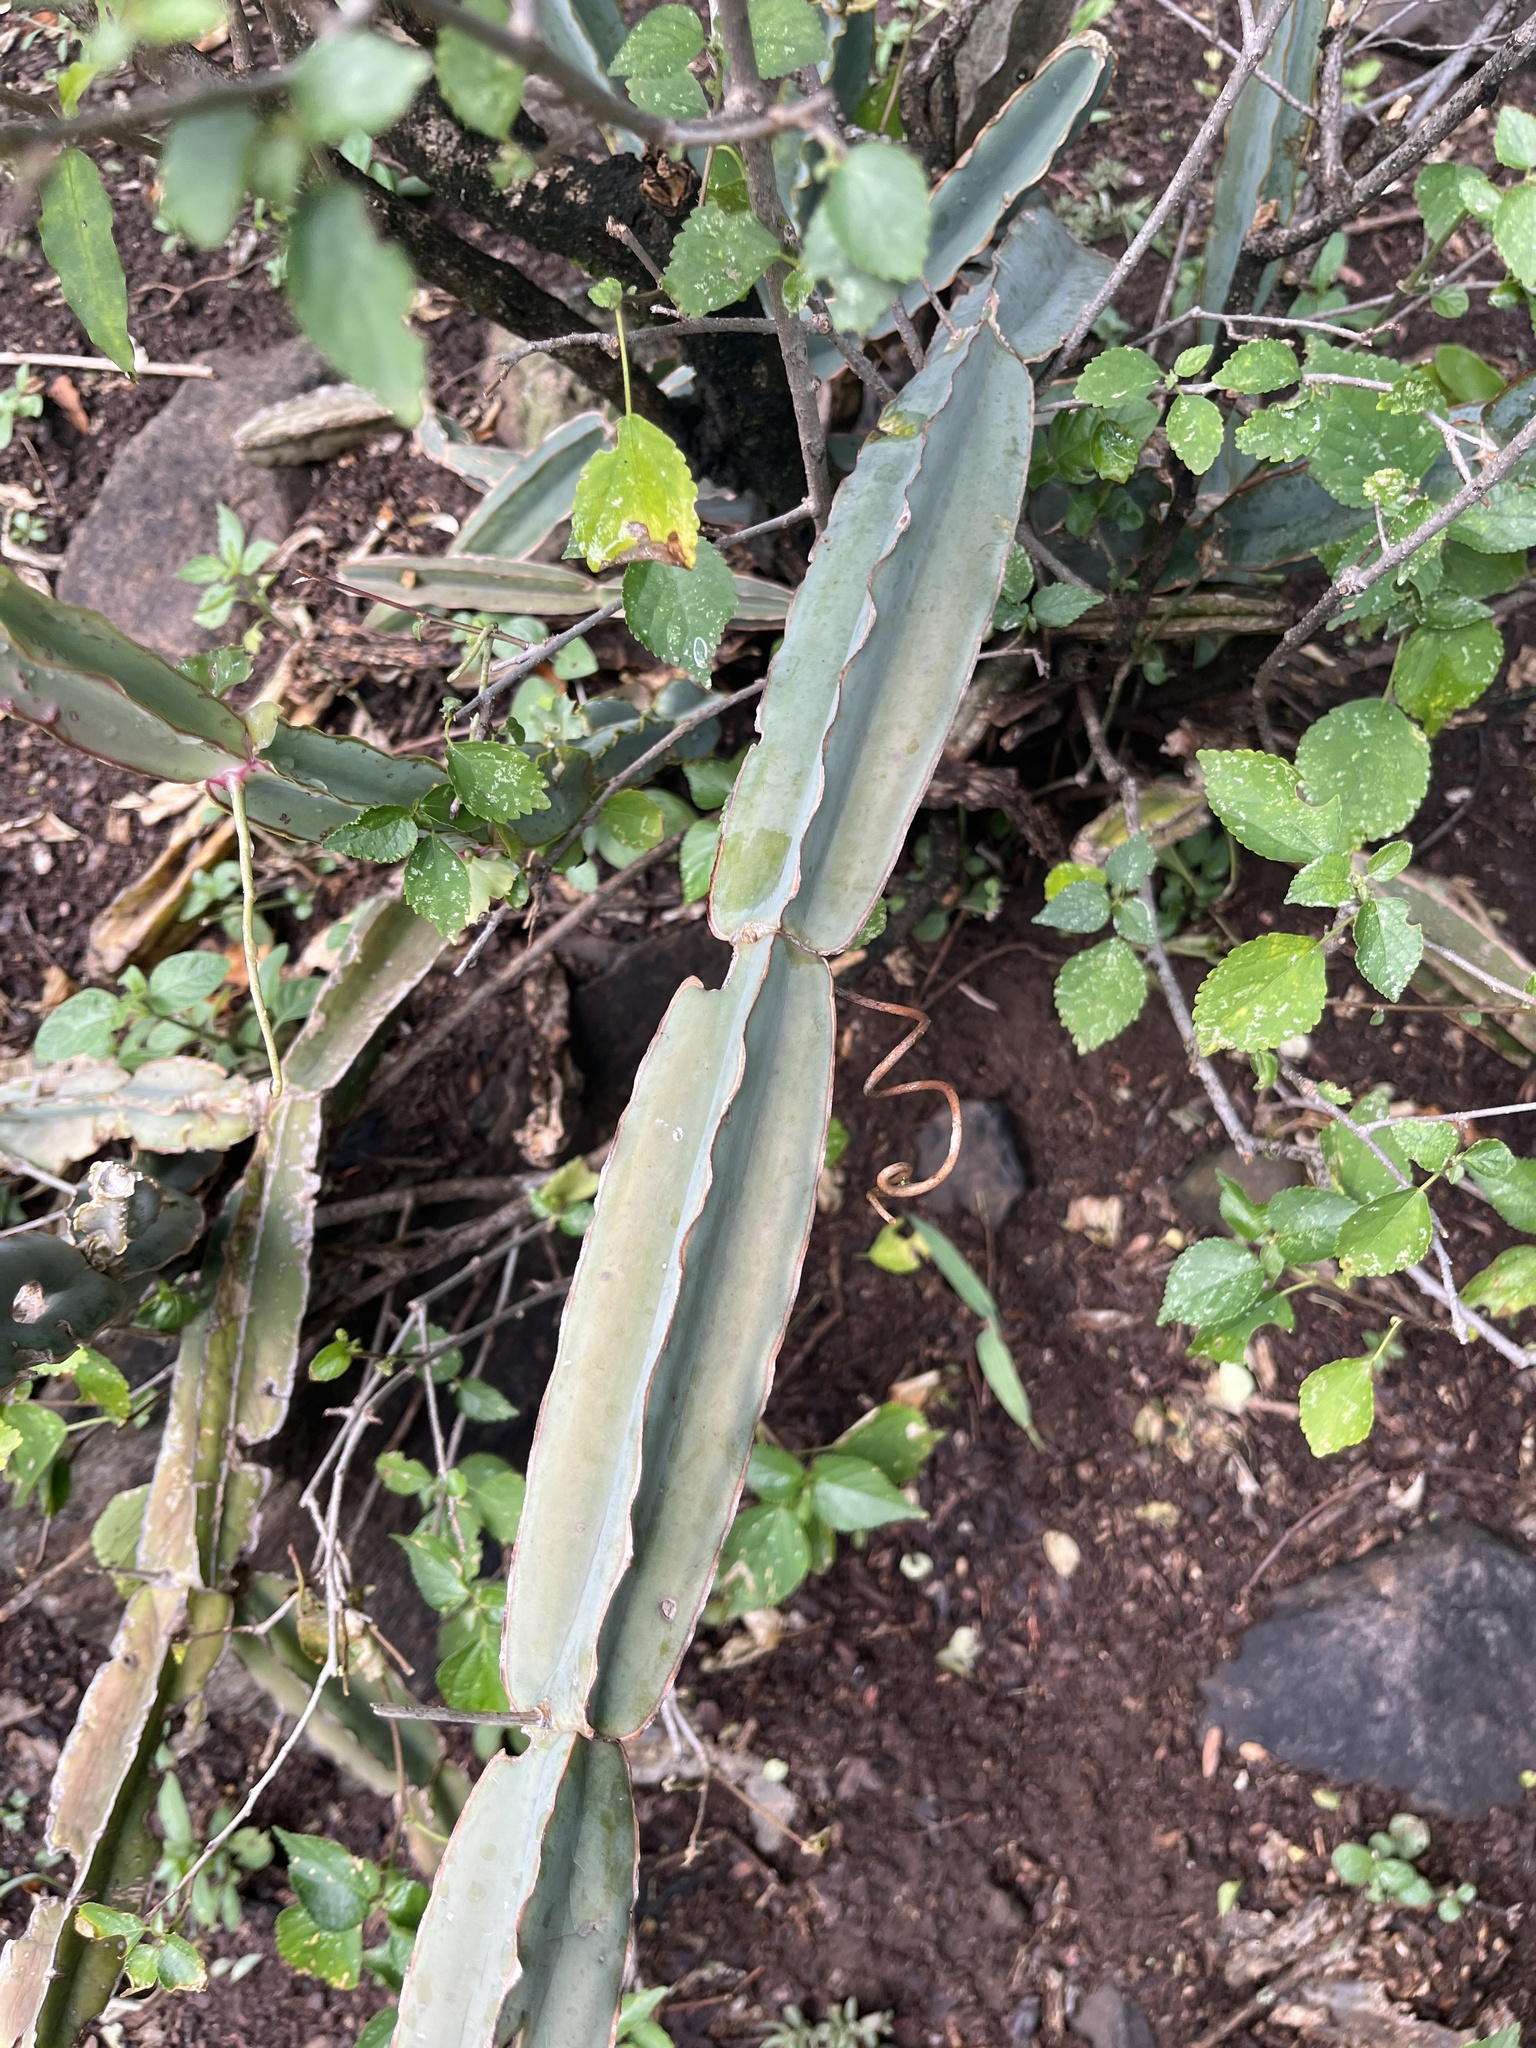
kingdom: Plantae
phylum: Tracheophyta
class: Magnoliopsida
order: Vitales
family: Vitaceae
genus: Cissus
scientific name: Cissus quadrangularis
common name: Veldt-grape
